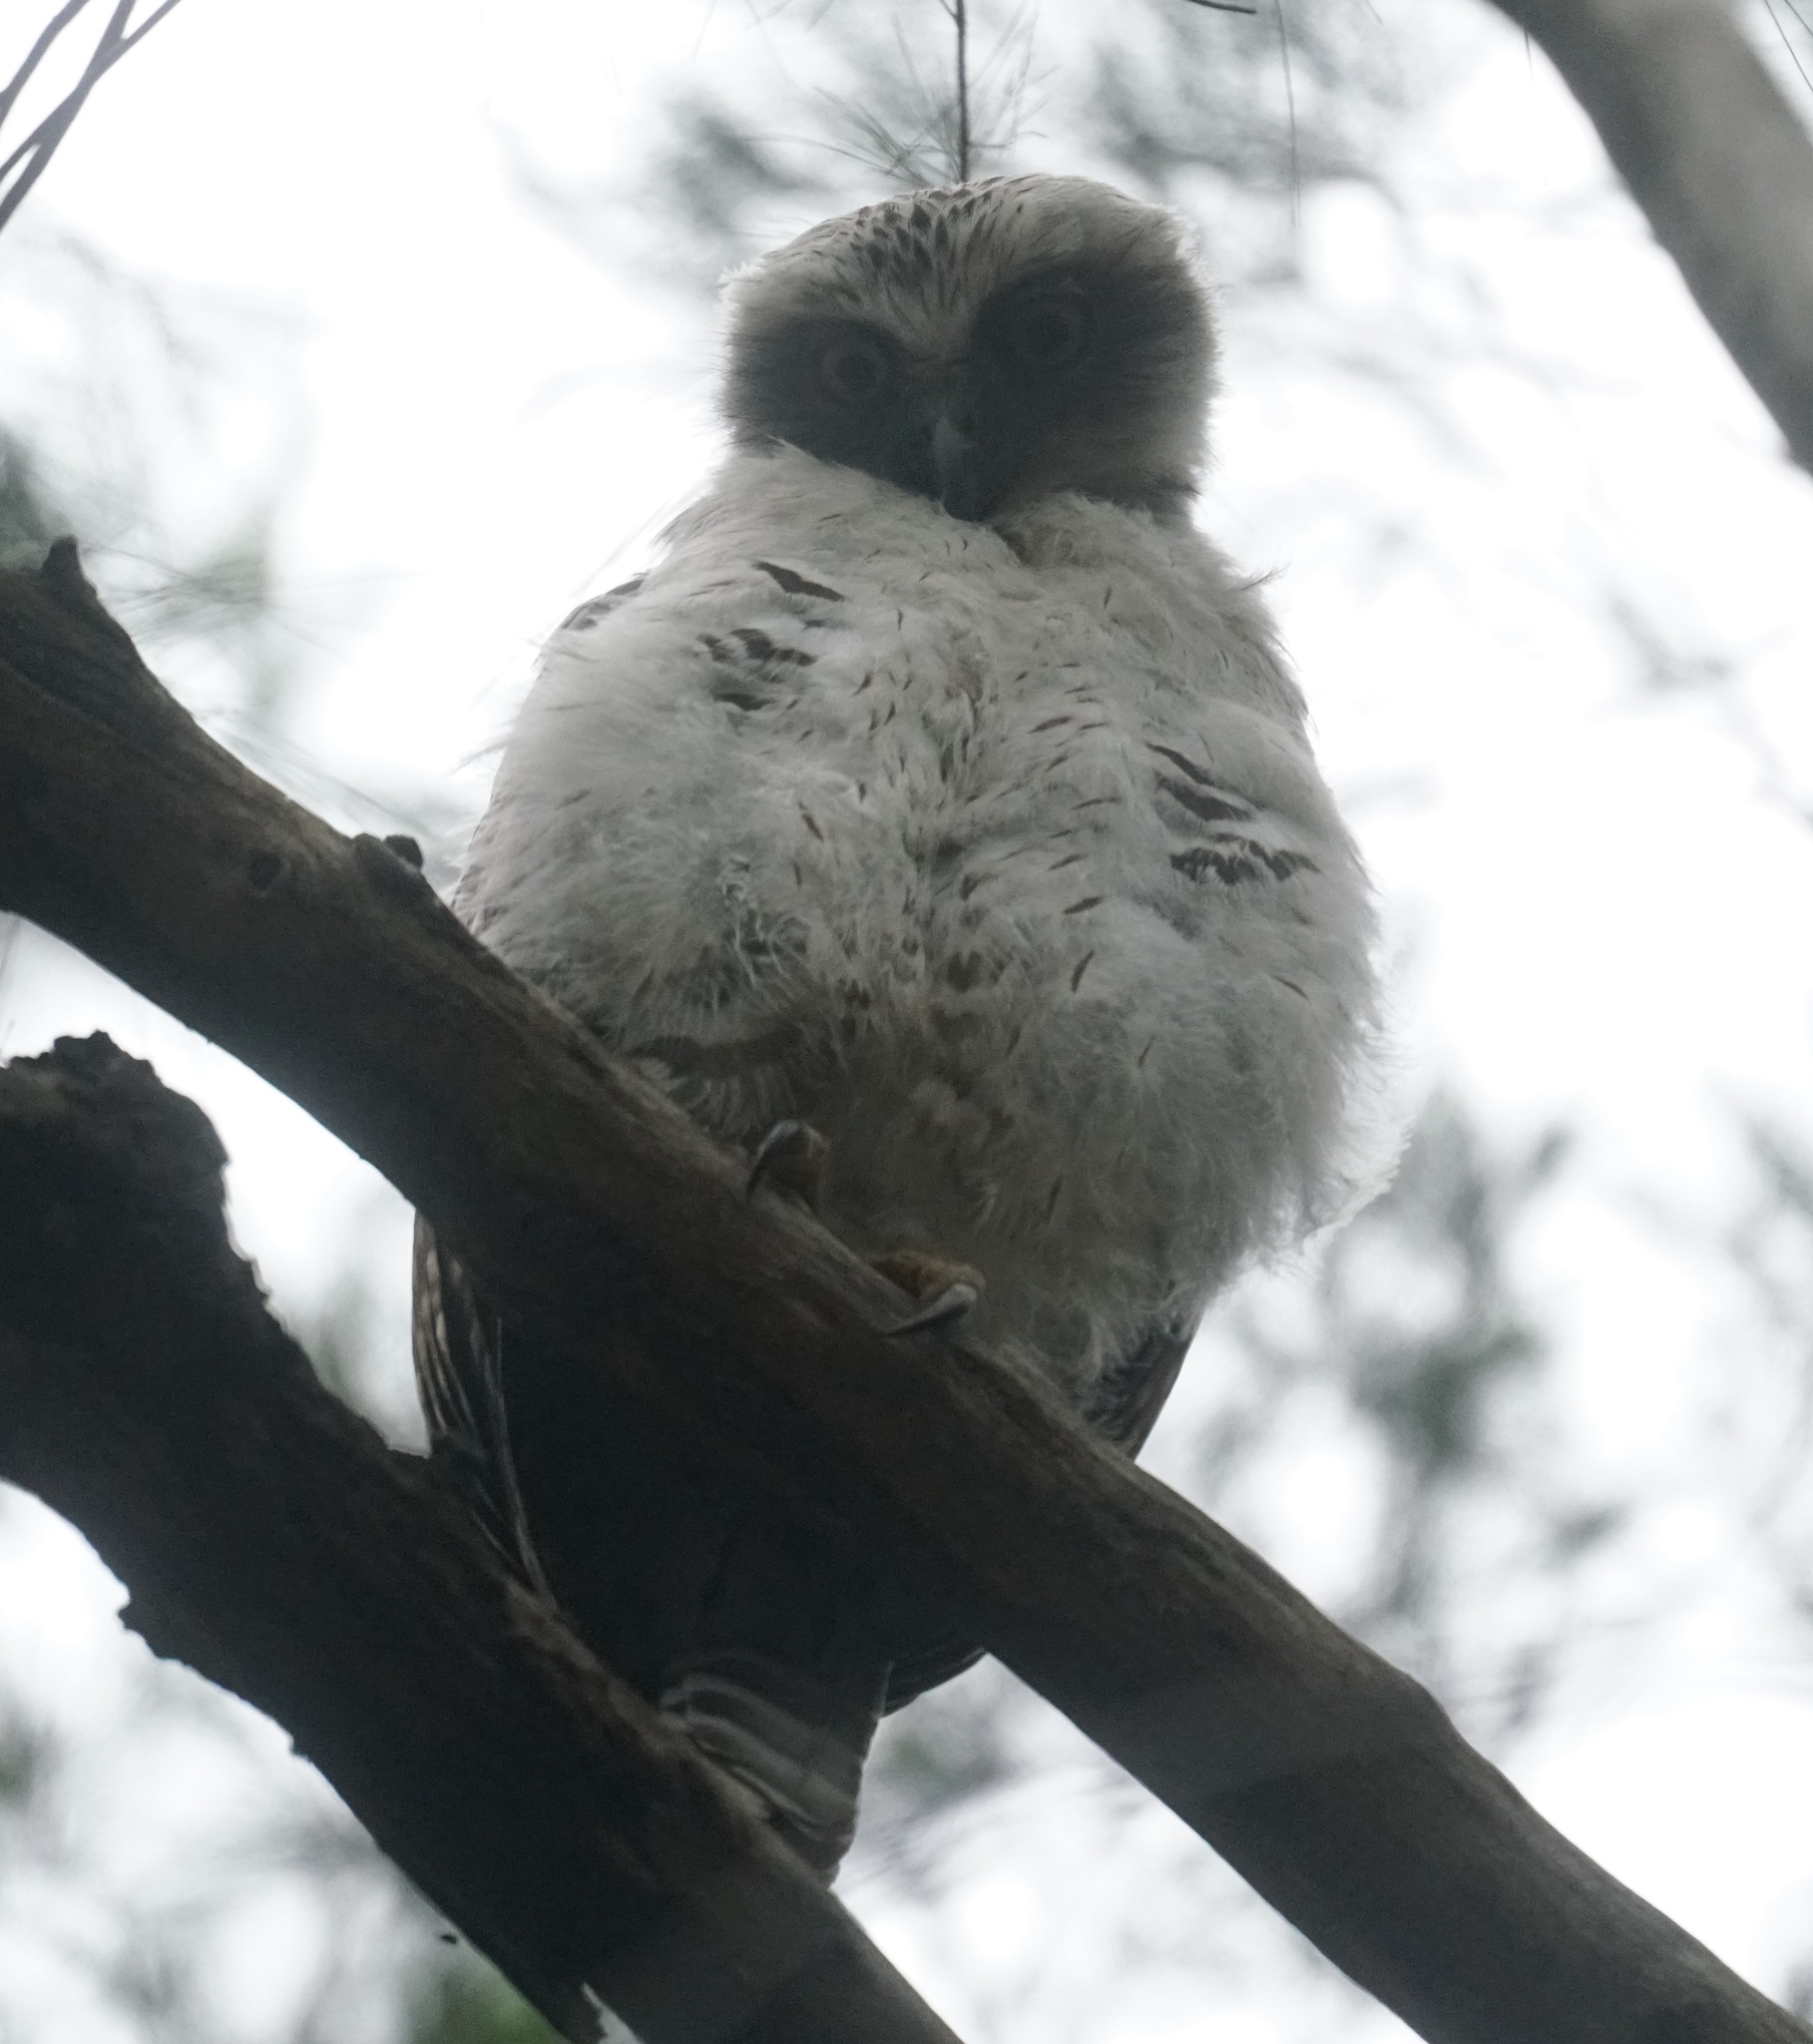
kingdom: Animalia
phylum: Chordata
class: Aves
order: Strigiformes
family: Strigidae
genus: Ninox
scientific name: Ninox strenua
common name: Powerful owl
